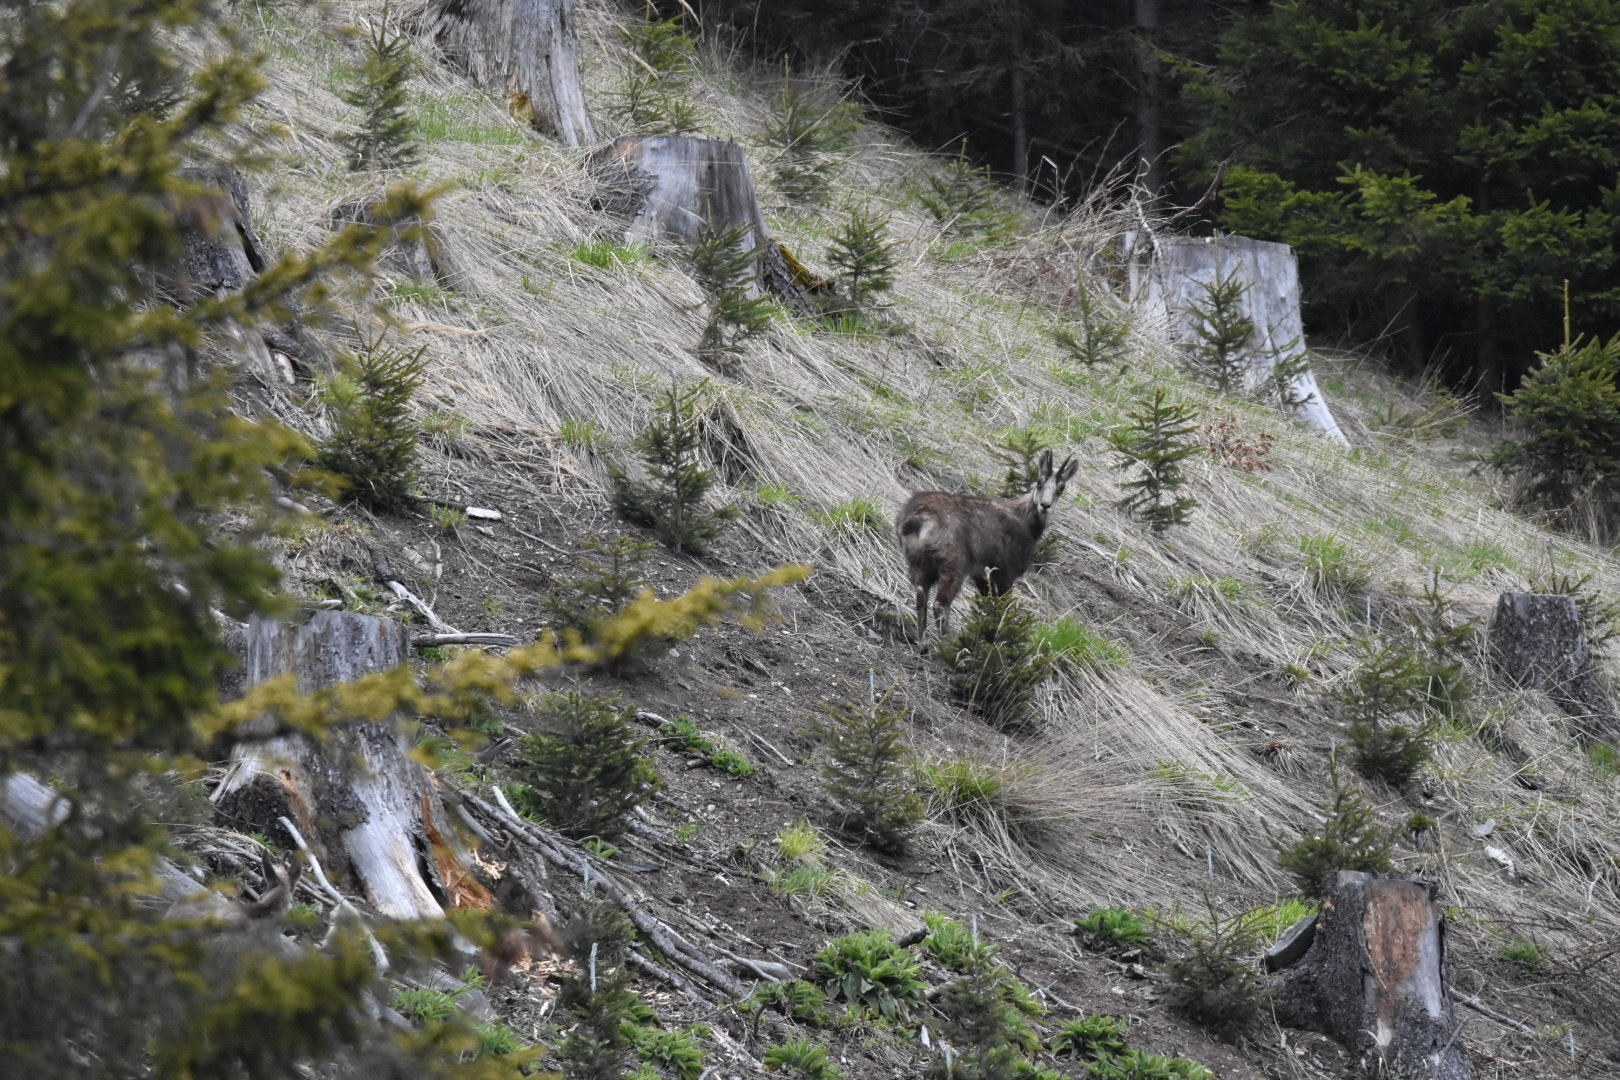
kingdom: Animalia
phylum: Chordata
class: Mammalia
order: Artiodactyla
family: Bovidae
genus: Rupicapra
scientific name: Rupicapra rupicapra
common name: Chamois
